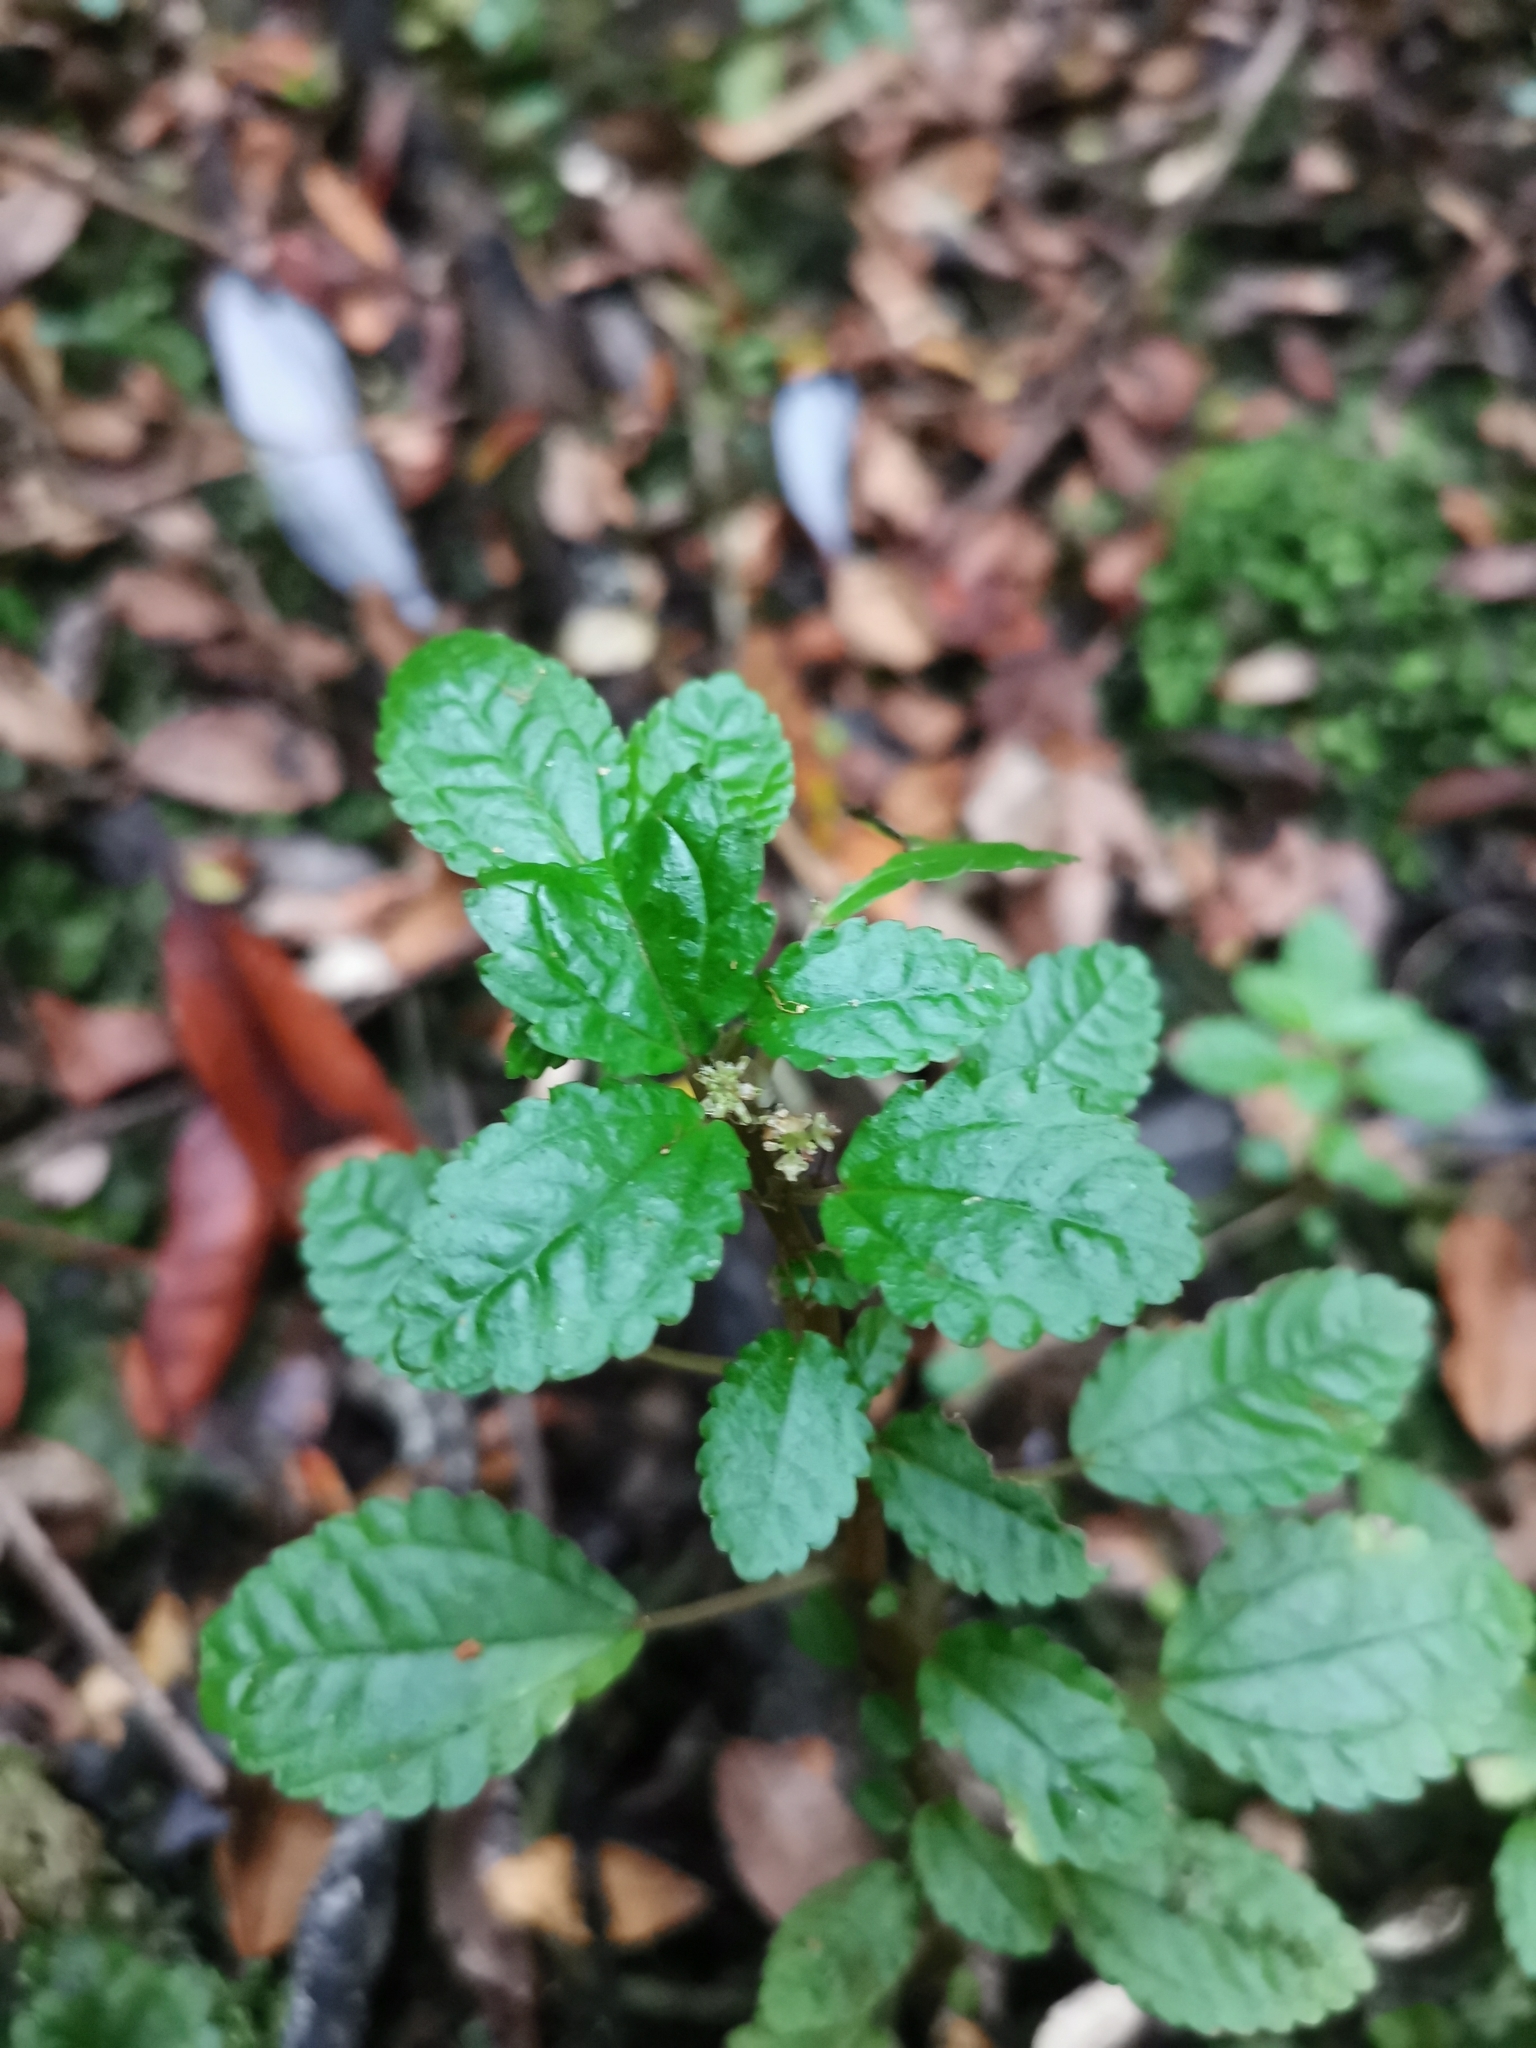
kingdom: Plantae
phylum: Tracheophyta
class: Magnoliopsida
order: Rosales
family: Urticaceae
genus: Pilea
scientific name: Pilea elliptica
